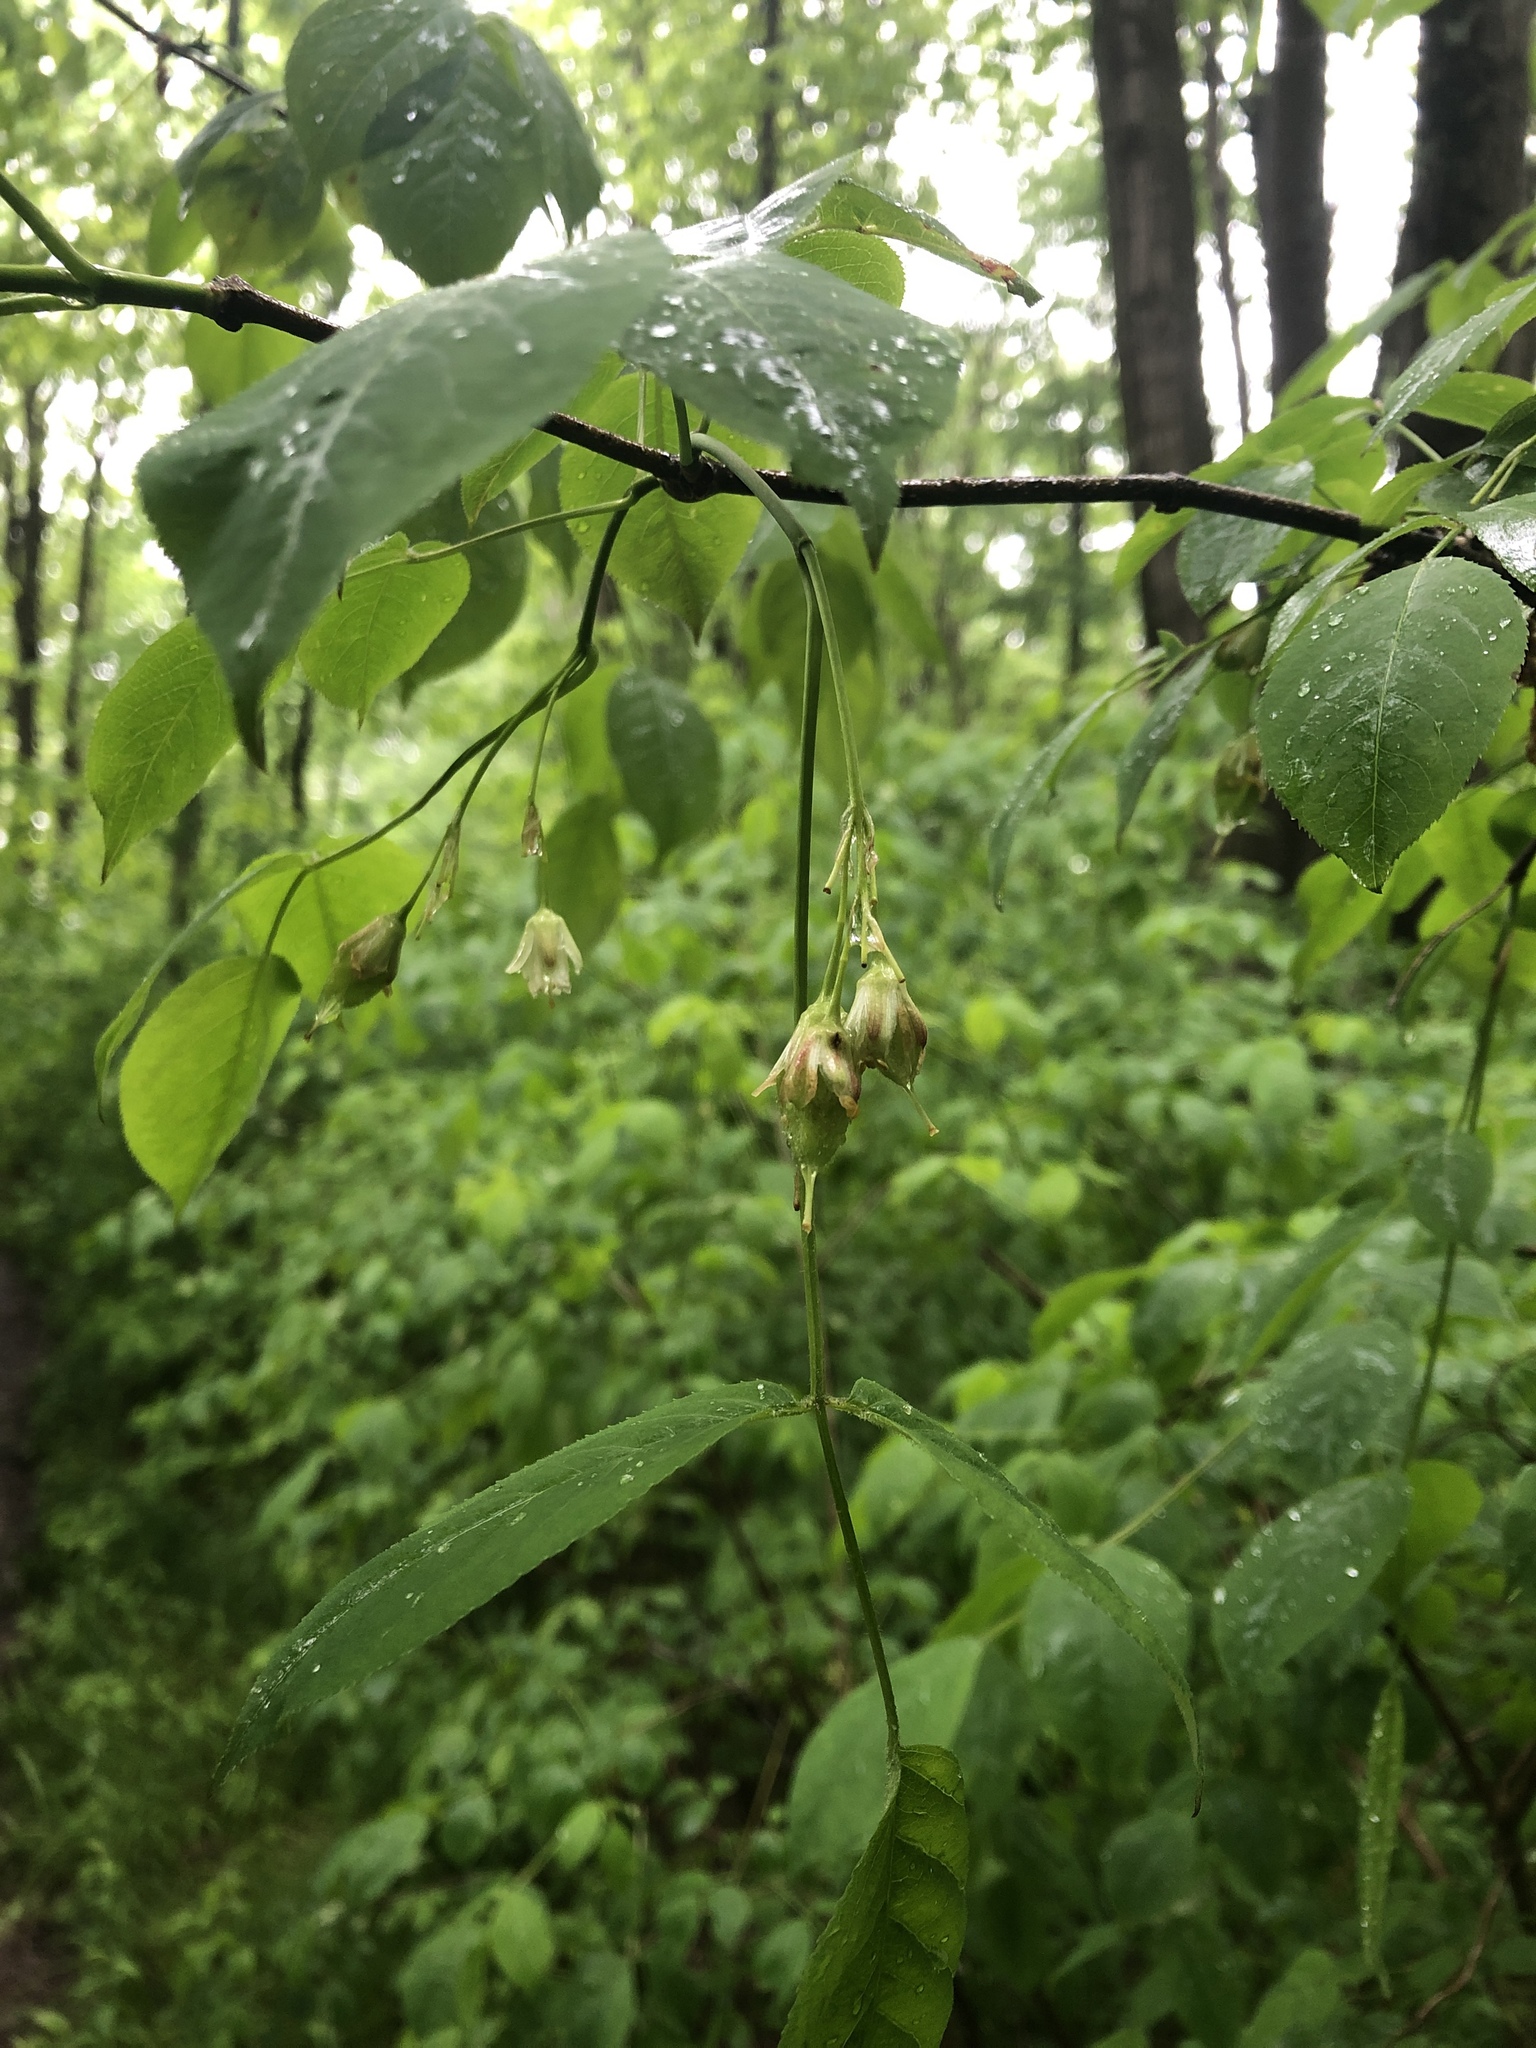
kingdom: Plantae
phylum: Tracheophyta
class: Magnoliopsida
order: Crossosomatales
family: Staphyleaceae
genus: Staphylea
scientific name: Staphylea trifolia
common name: American bladdernut
